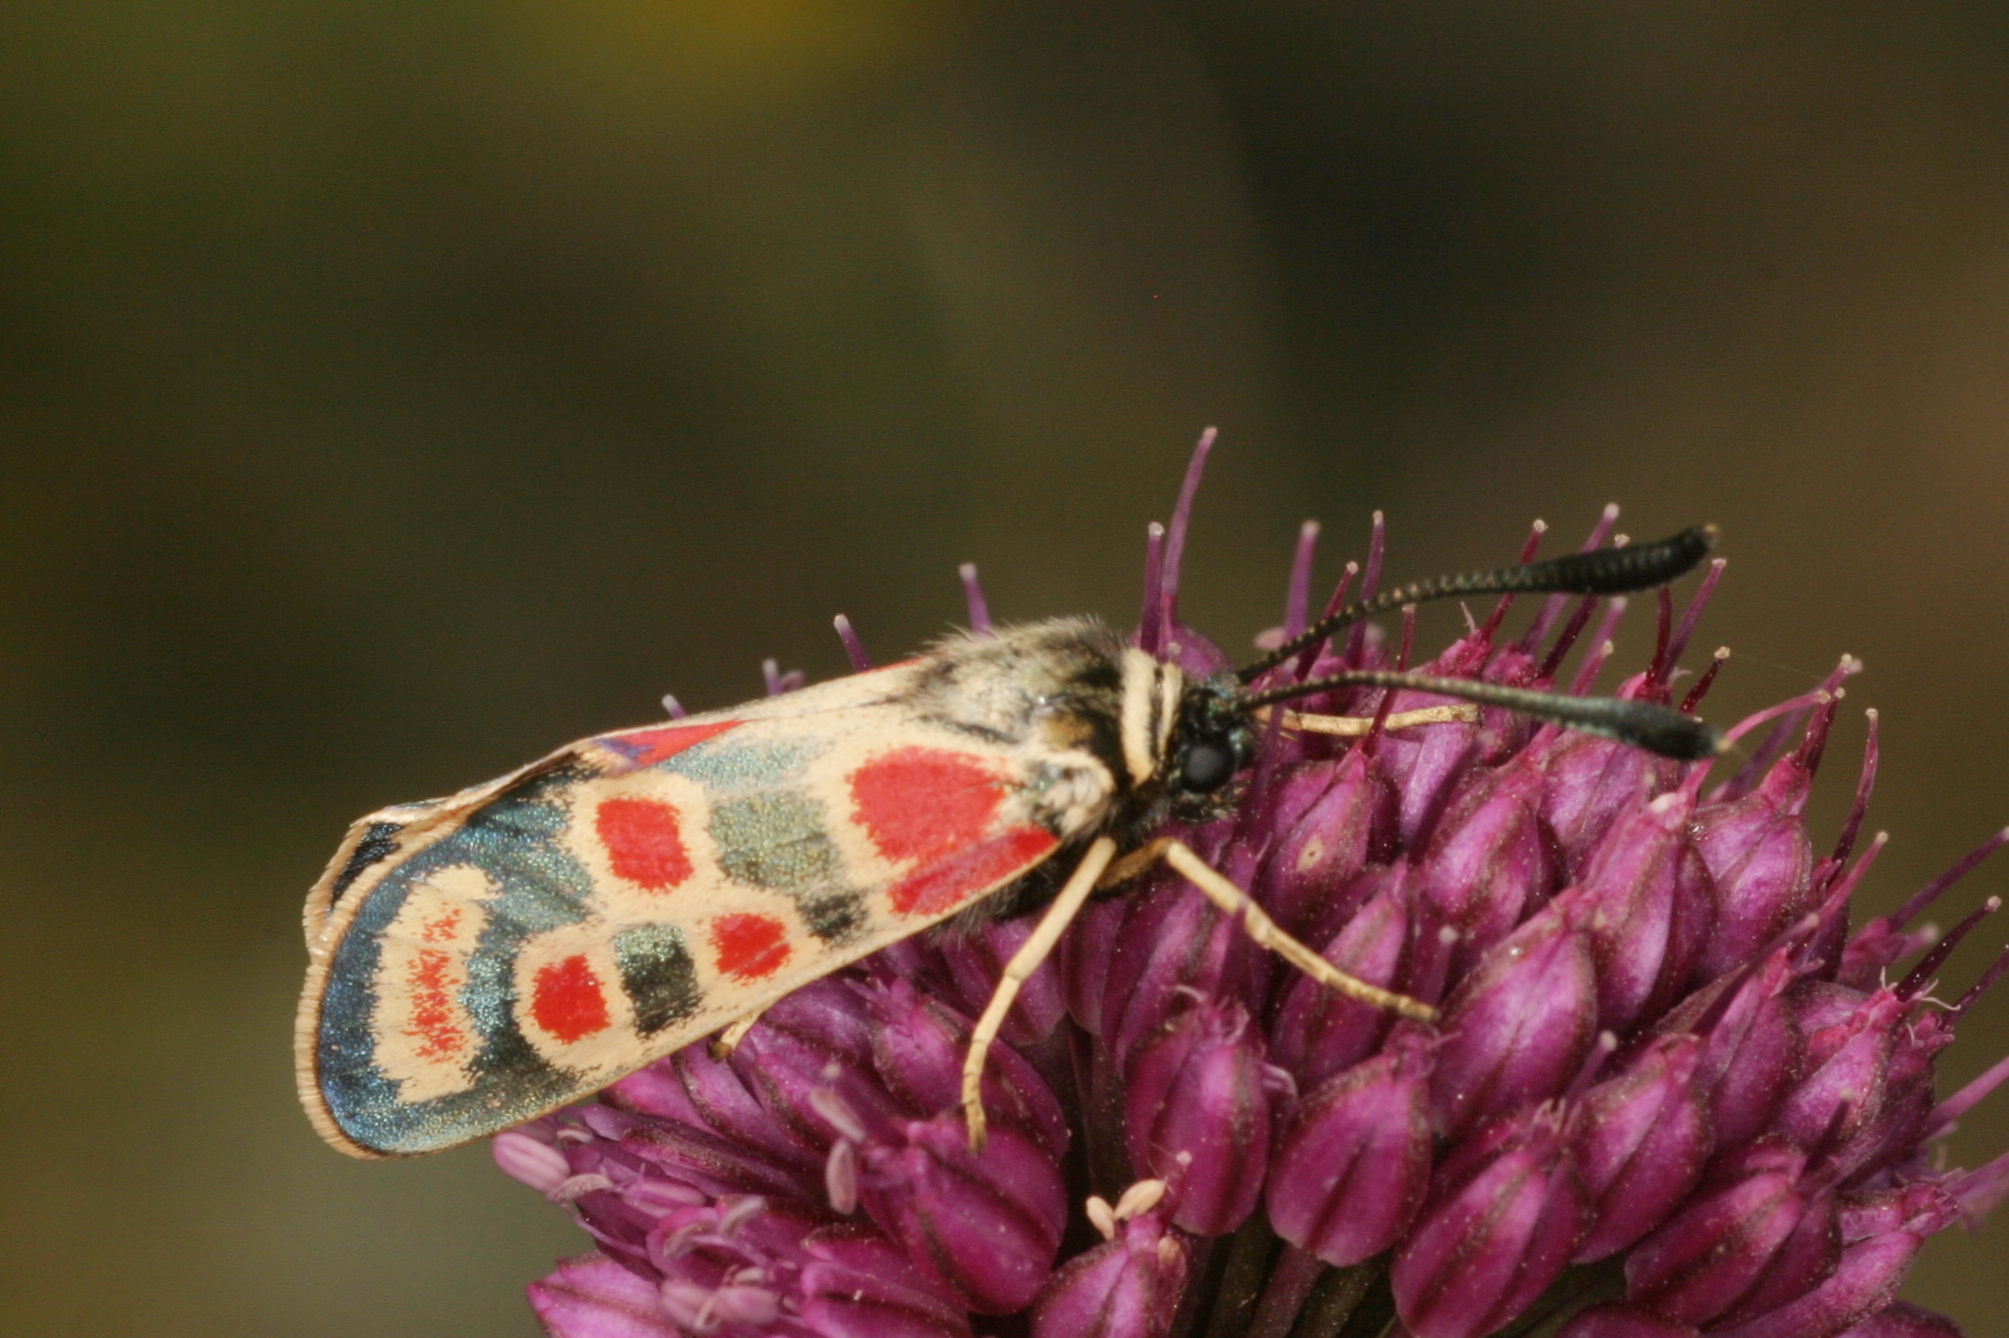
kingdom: Animalia
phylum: Arthropoda
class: Insecta
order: Lepidoptera
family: Zygaenidae
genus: Zygaena
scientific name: Zygaena carniolica
